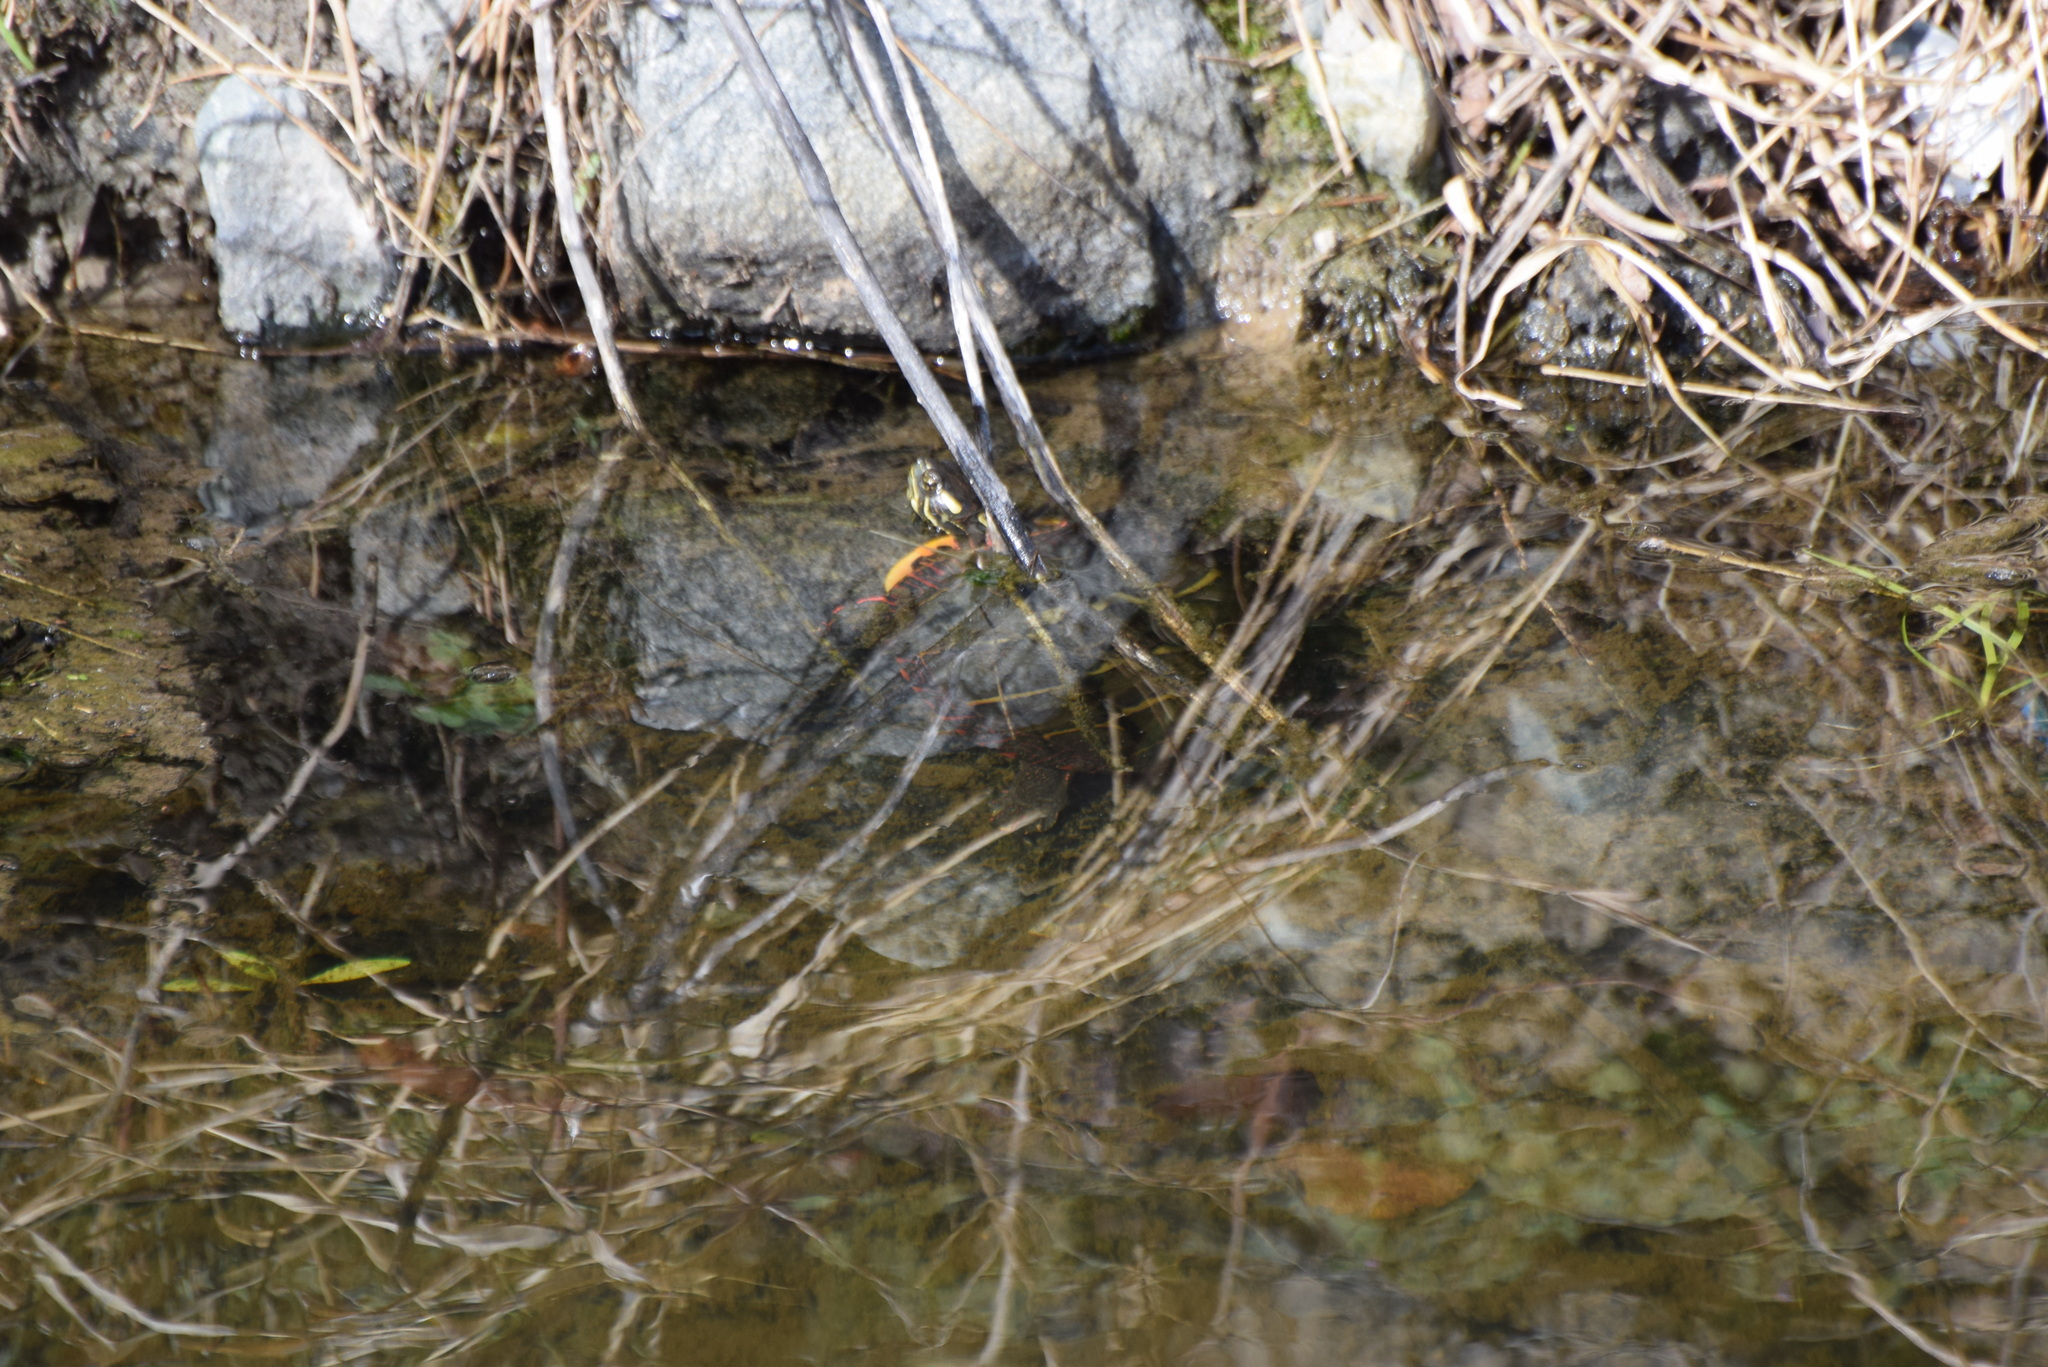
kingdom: Animalia
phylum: Chordata
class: Testudines
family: Emydidae
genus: Chrysemys
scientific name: Chrysemys picta
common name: Painted turtle
